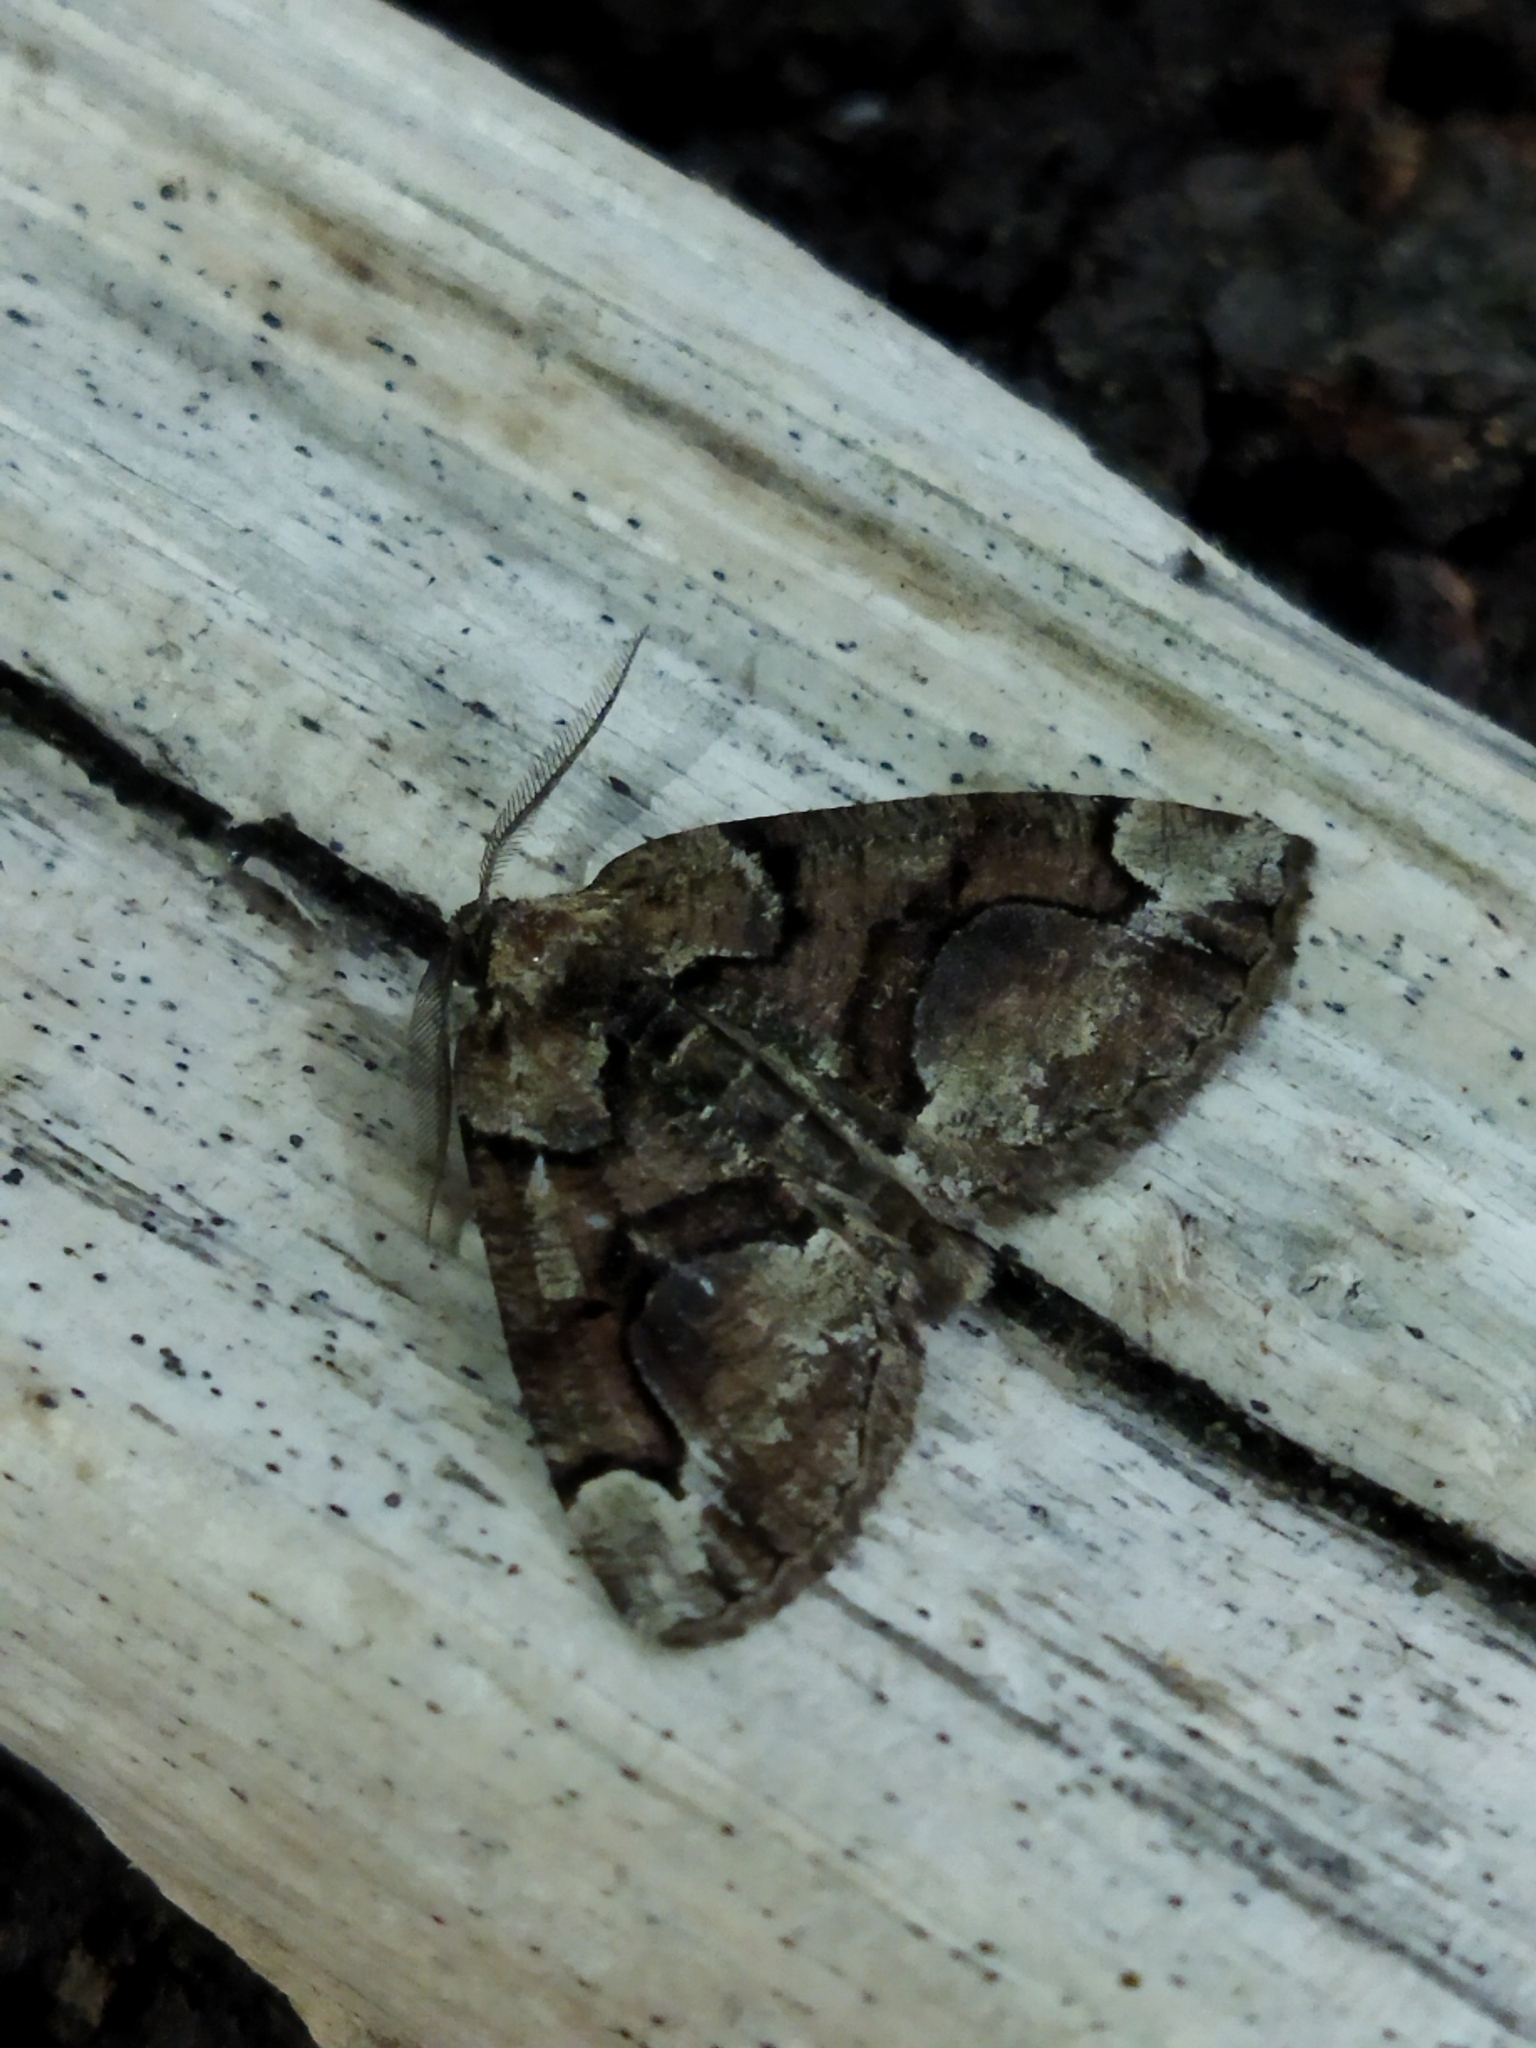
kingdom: Animalia
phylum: Arthropoda
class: Insecta
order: Lepidoptera
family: Geometridae
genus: Asovia
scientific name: Asovia maeoticaria
